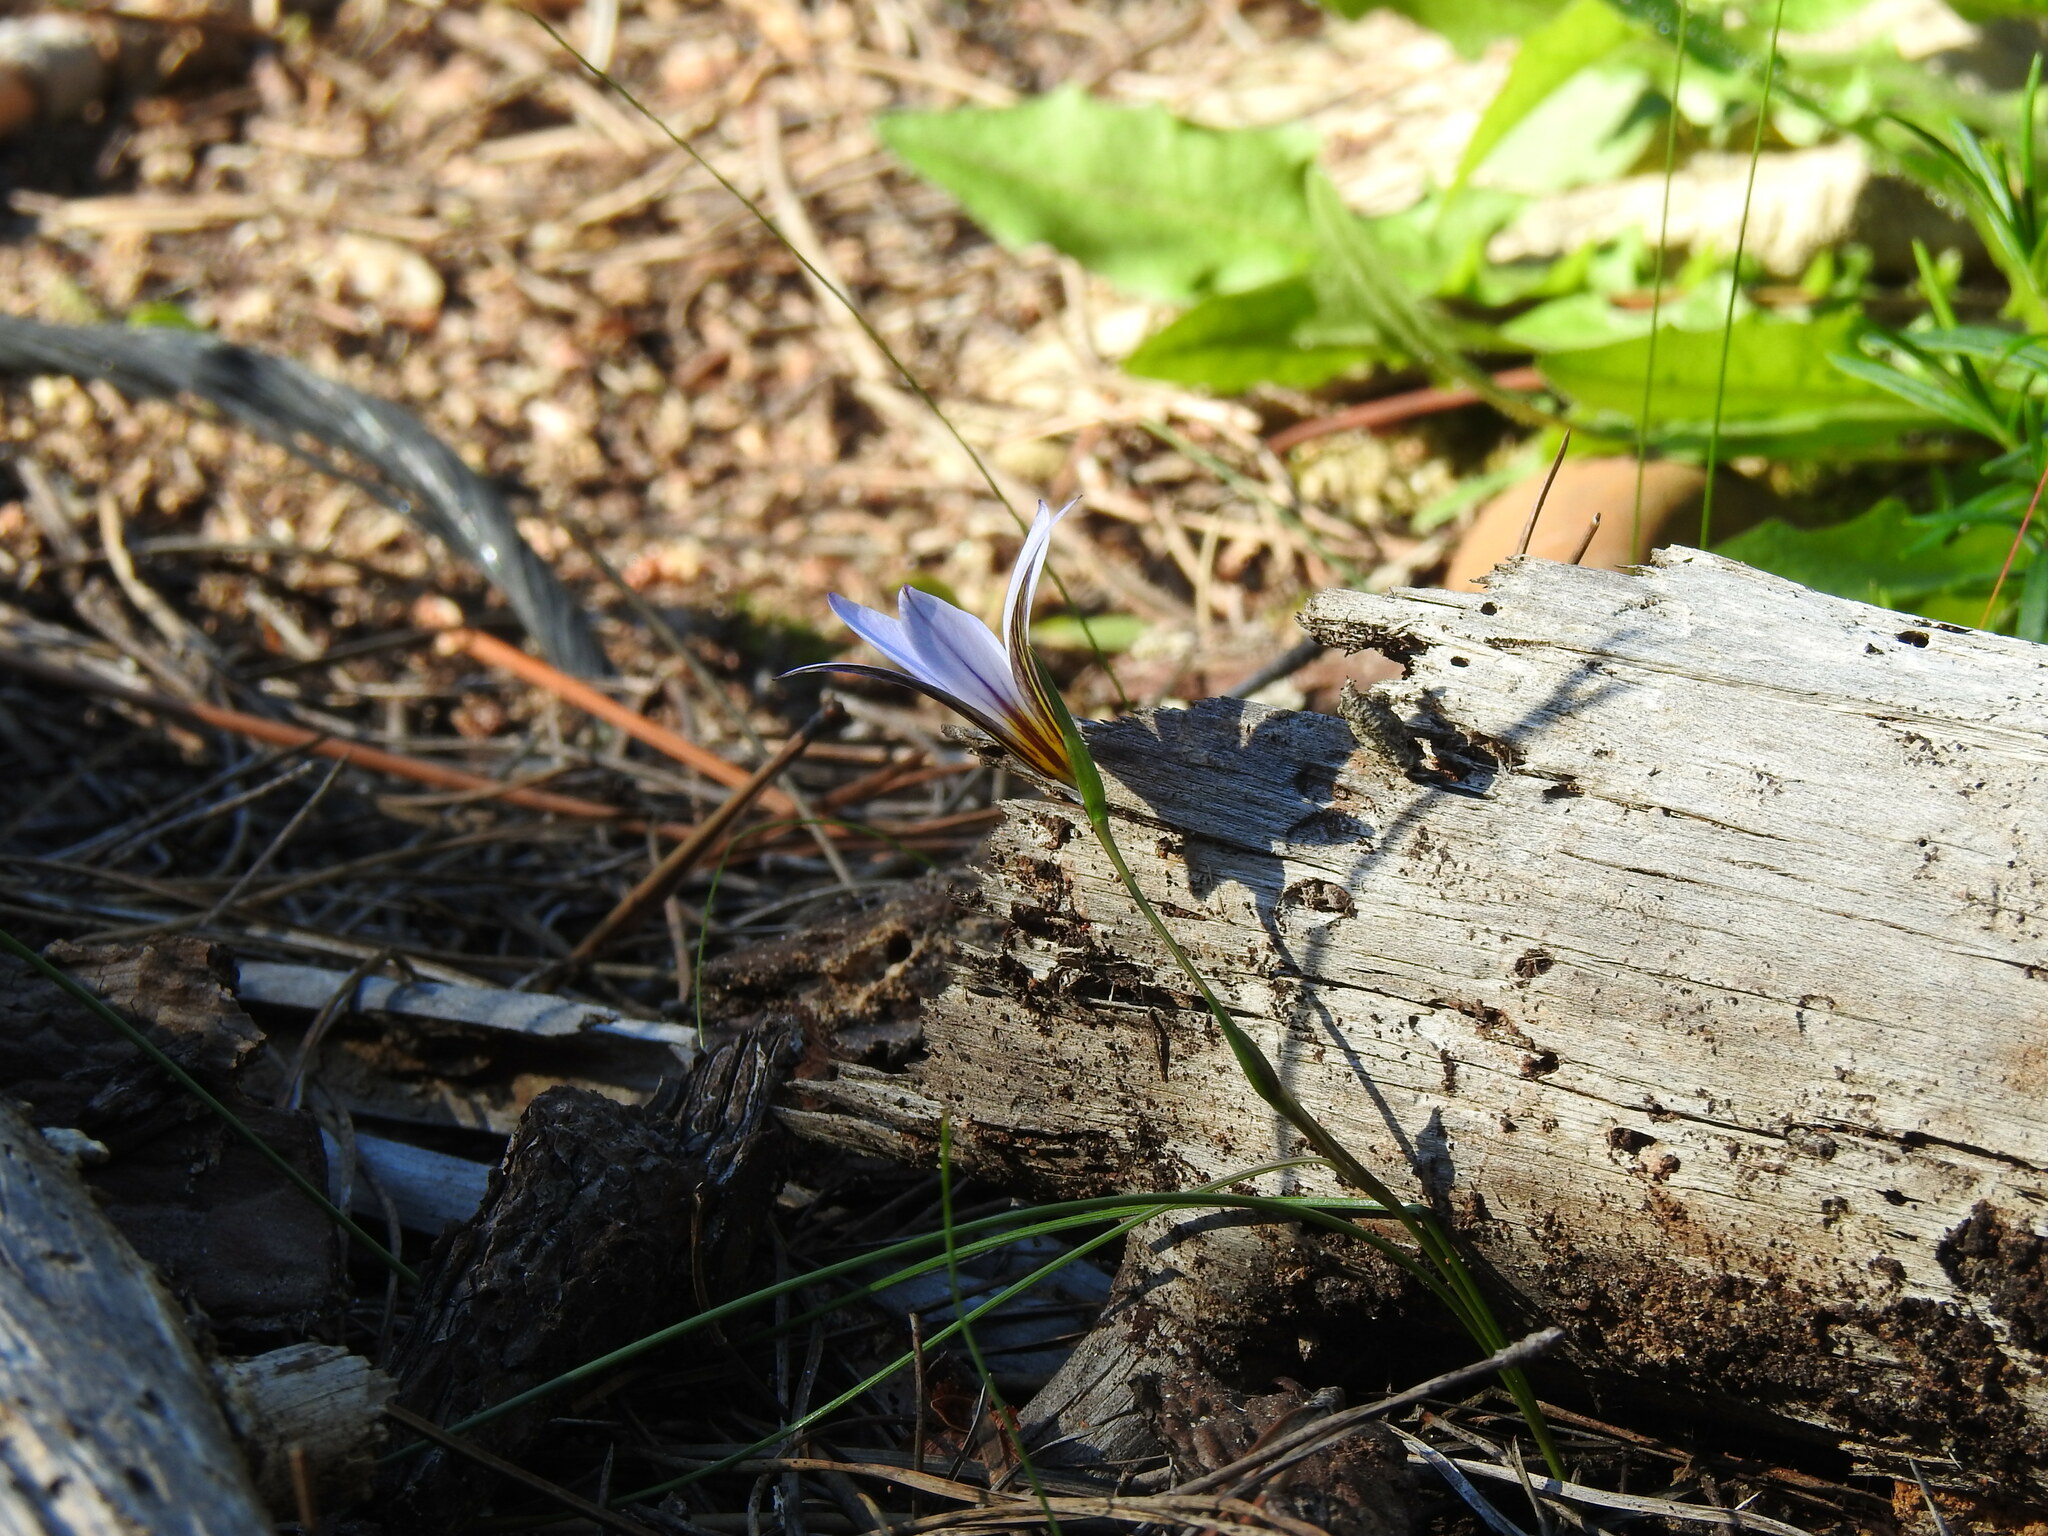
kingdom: Plantae
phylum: Tracheophyta
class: Liliopsida
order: Asparagales
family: Iridaceae
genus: Romulea
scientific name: Romulea bulbocodium
